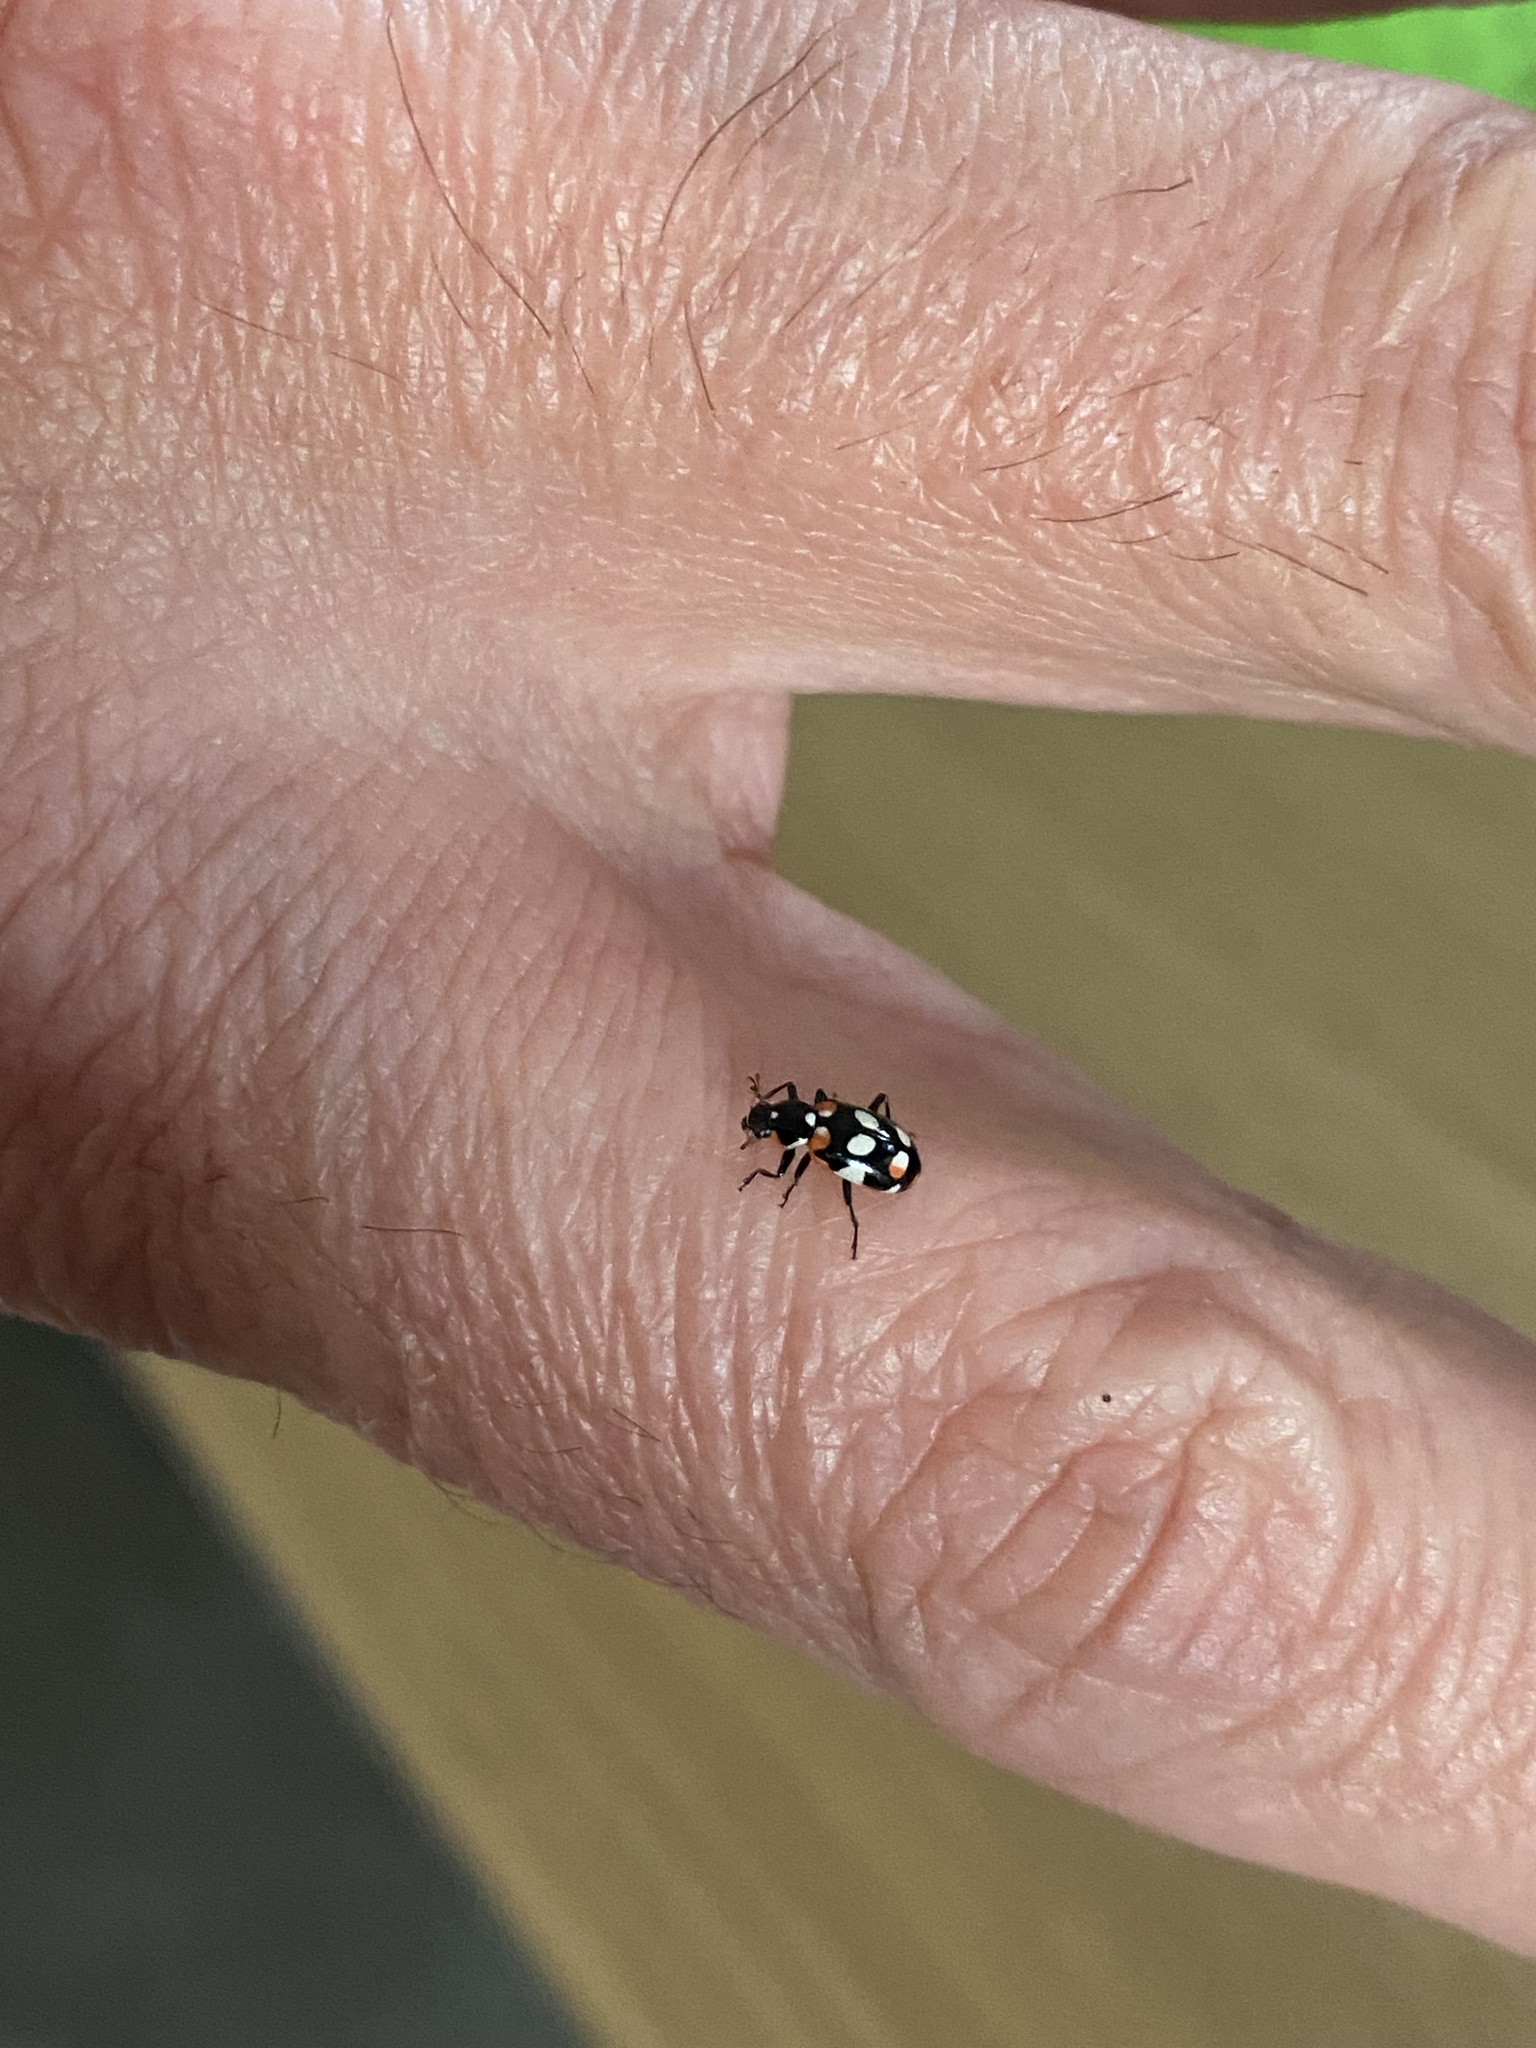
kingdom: Animalia
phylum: Arthropoda
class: Insecta
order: Coleoptera
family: Coccinellidae
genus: Eriopis
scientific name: Eriopis connexa
